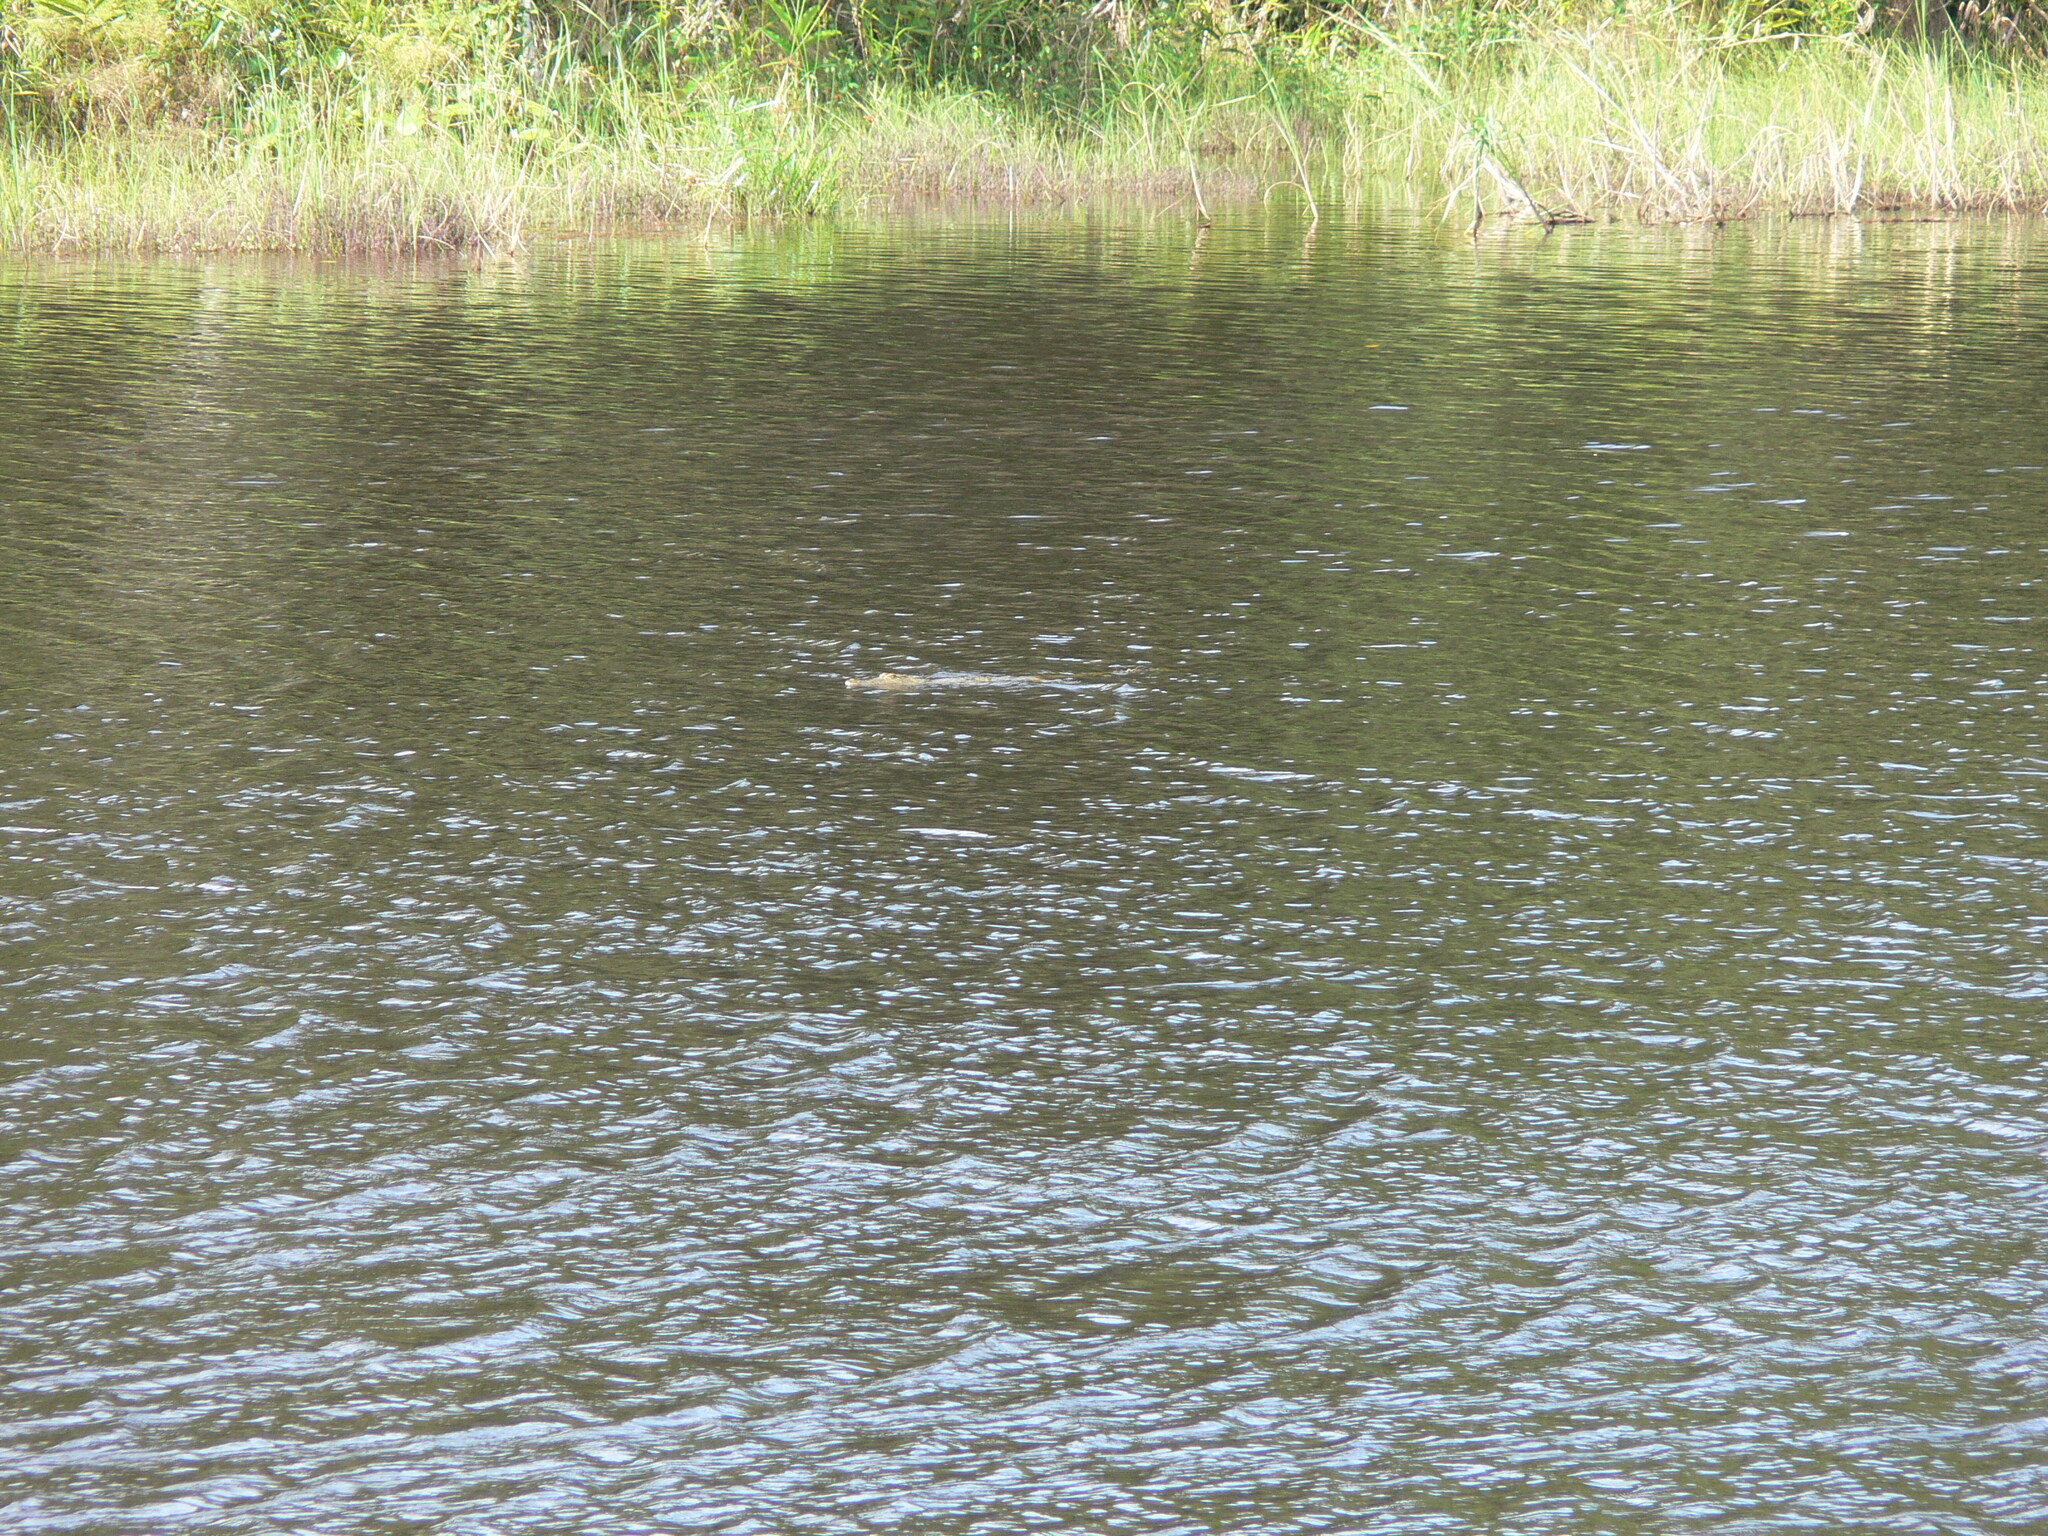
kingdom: Animalia
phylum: Chordata
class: Crocodylia
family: Crocodylidae
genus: Crocodylus
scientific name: Crocodylus niloticus
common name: Nile crocodile
